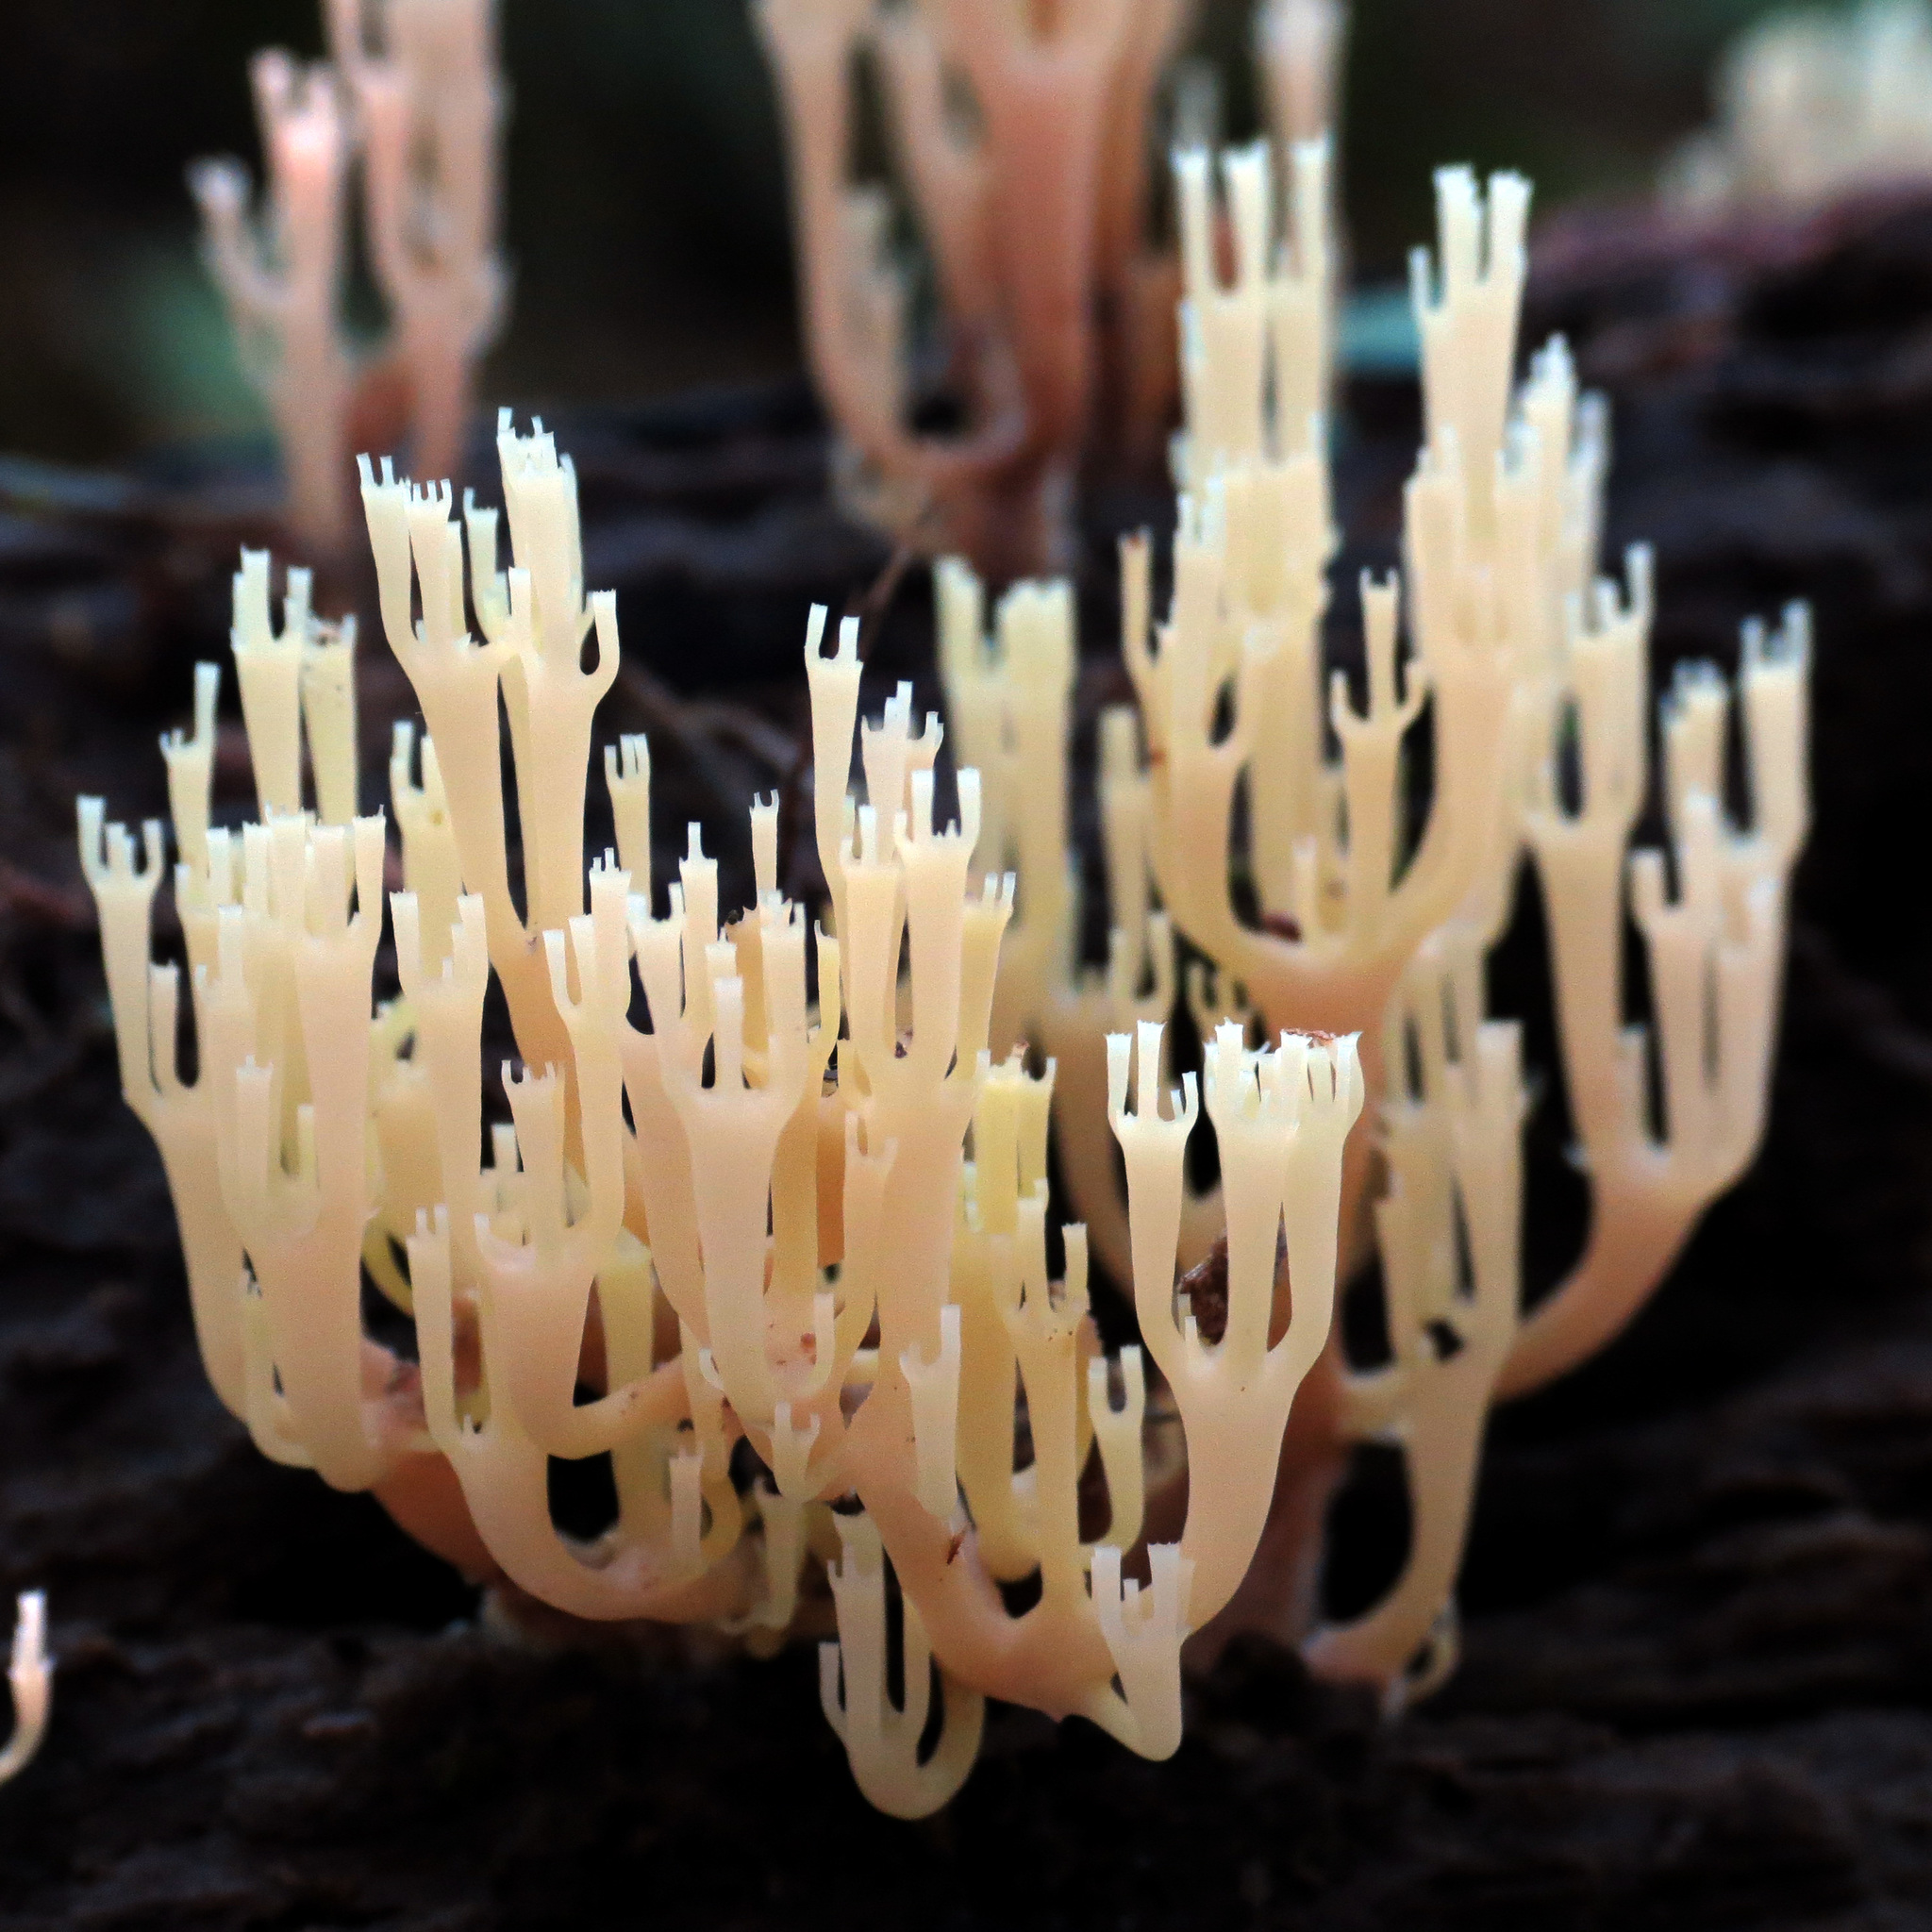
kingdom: Fungi
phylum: Basidiomycota
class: Agaricomycetes
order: Russulales
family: Auriscalpiaceae
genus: Artomyces
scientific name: Artomyces pyxidatus
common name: Crown-tipped coral fungus
